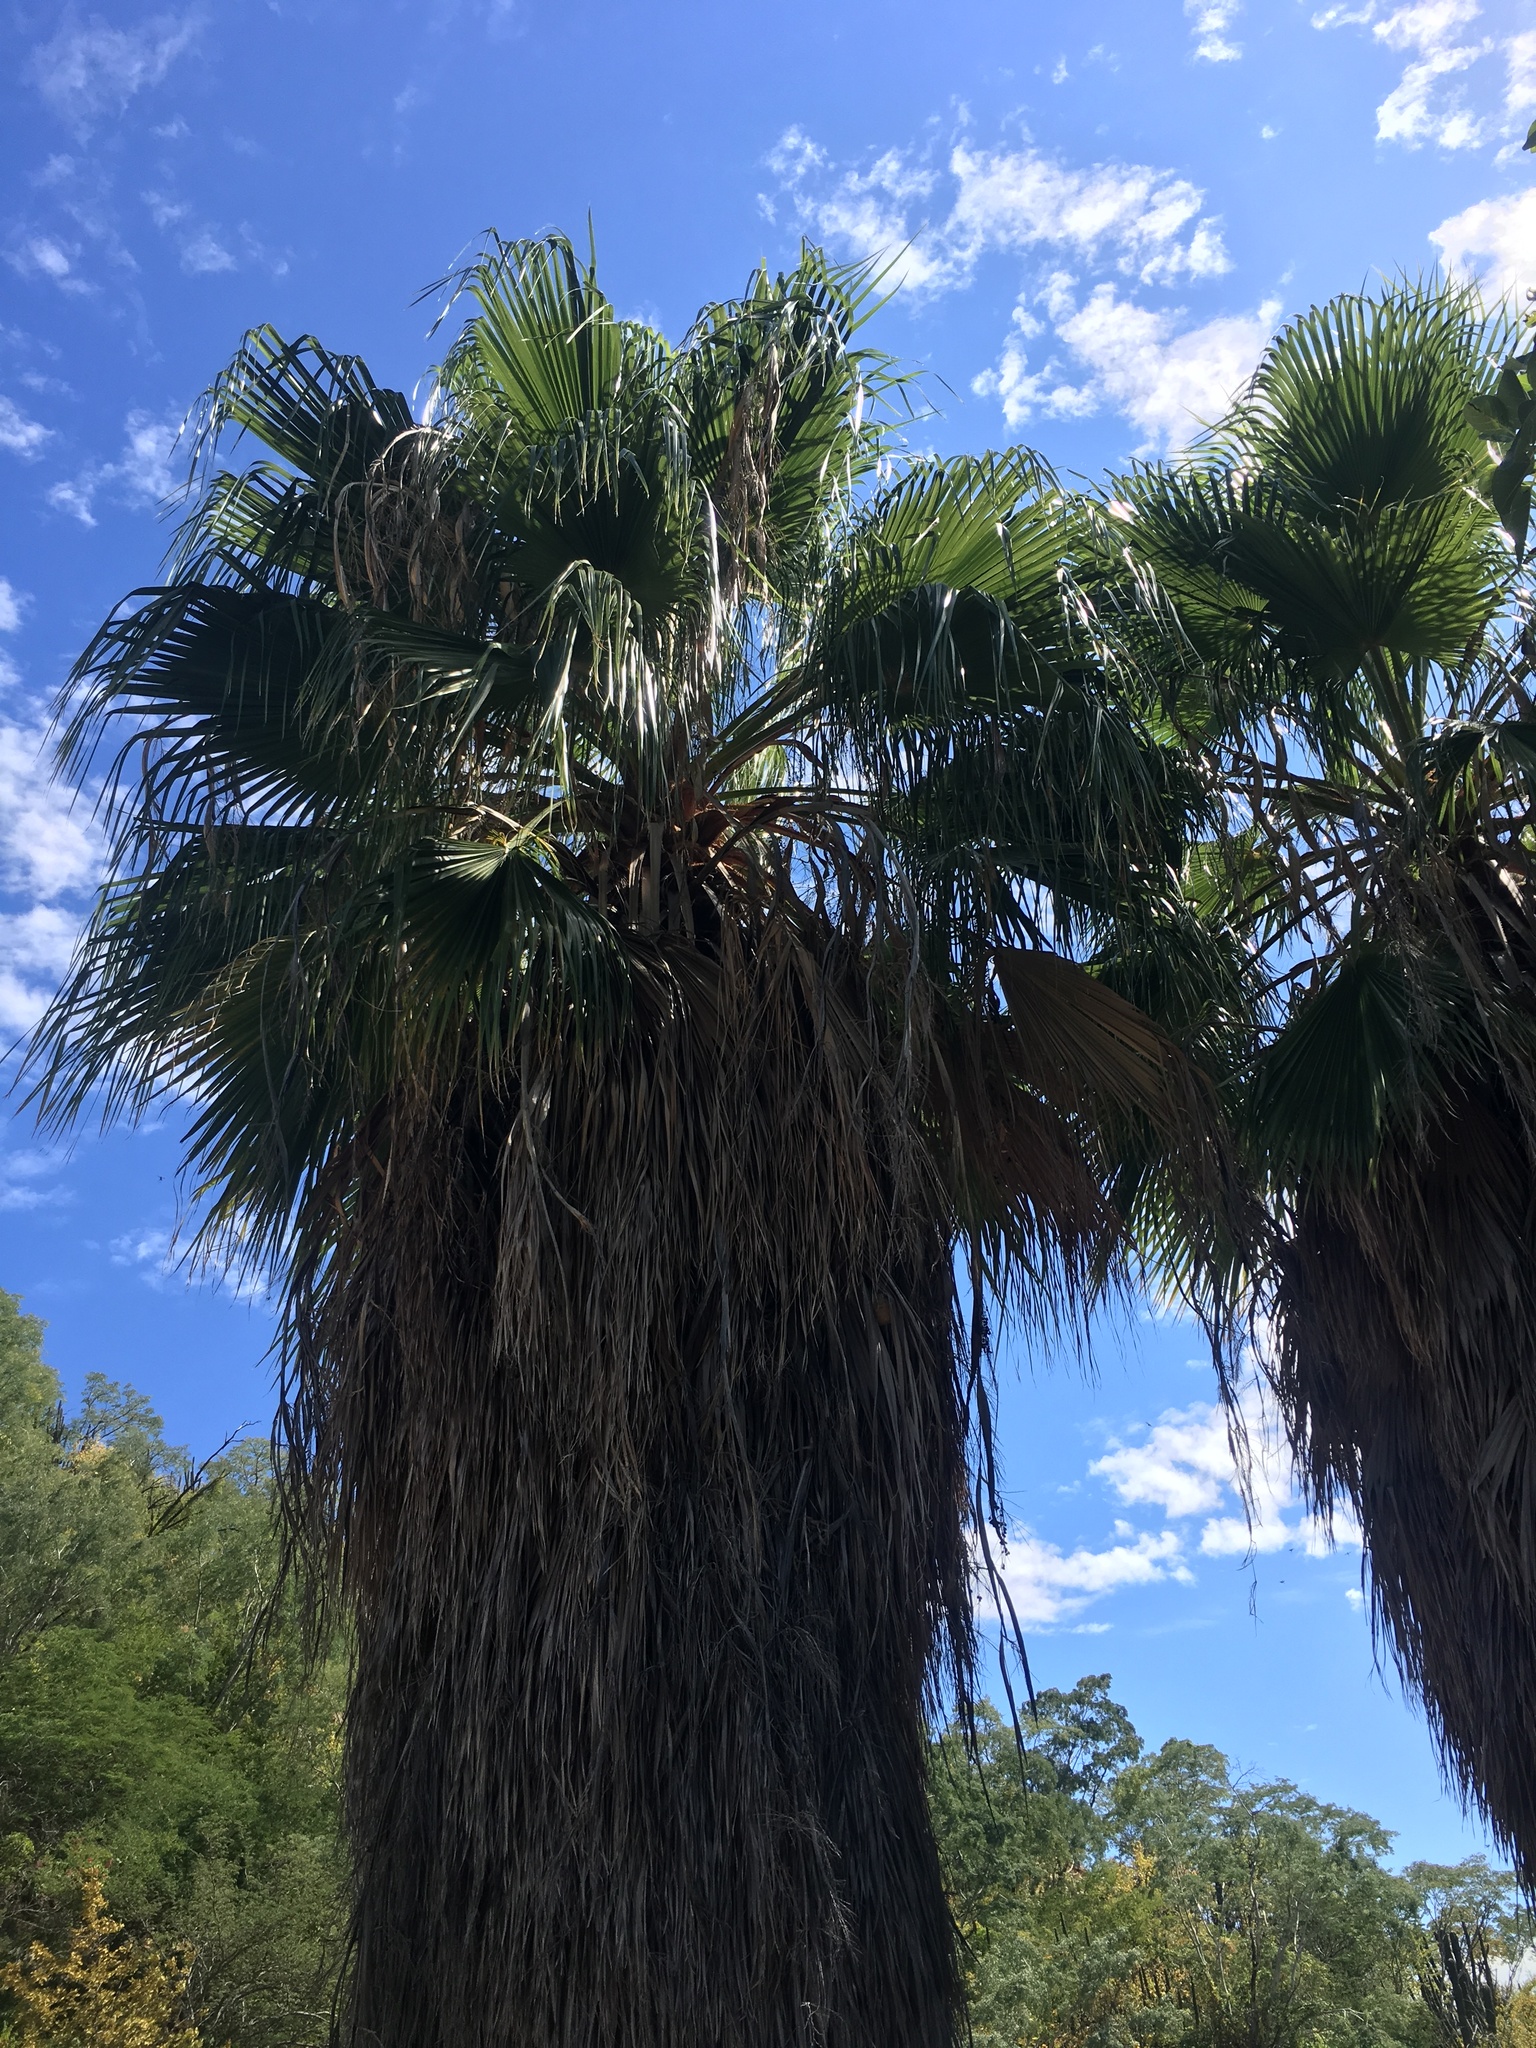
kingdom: Plantae
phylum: Tracheophyta
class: Liliopsida
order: Arecales
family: Arecaceae
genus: Washingtonia
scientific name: Washingtonia robusta
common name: Mexican fan palm
